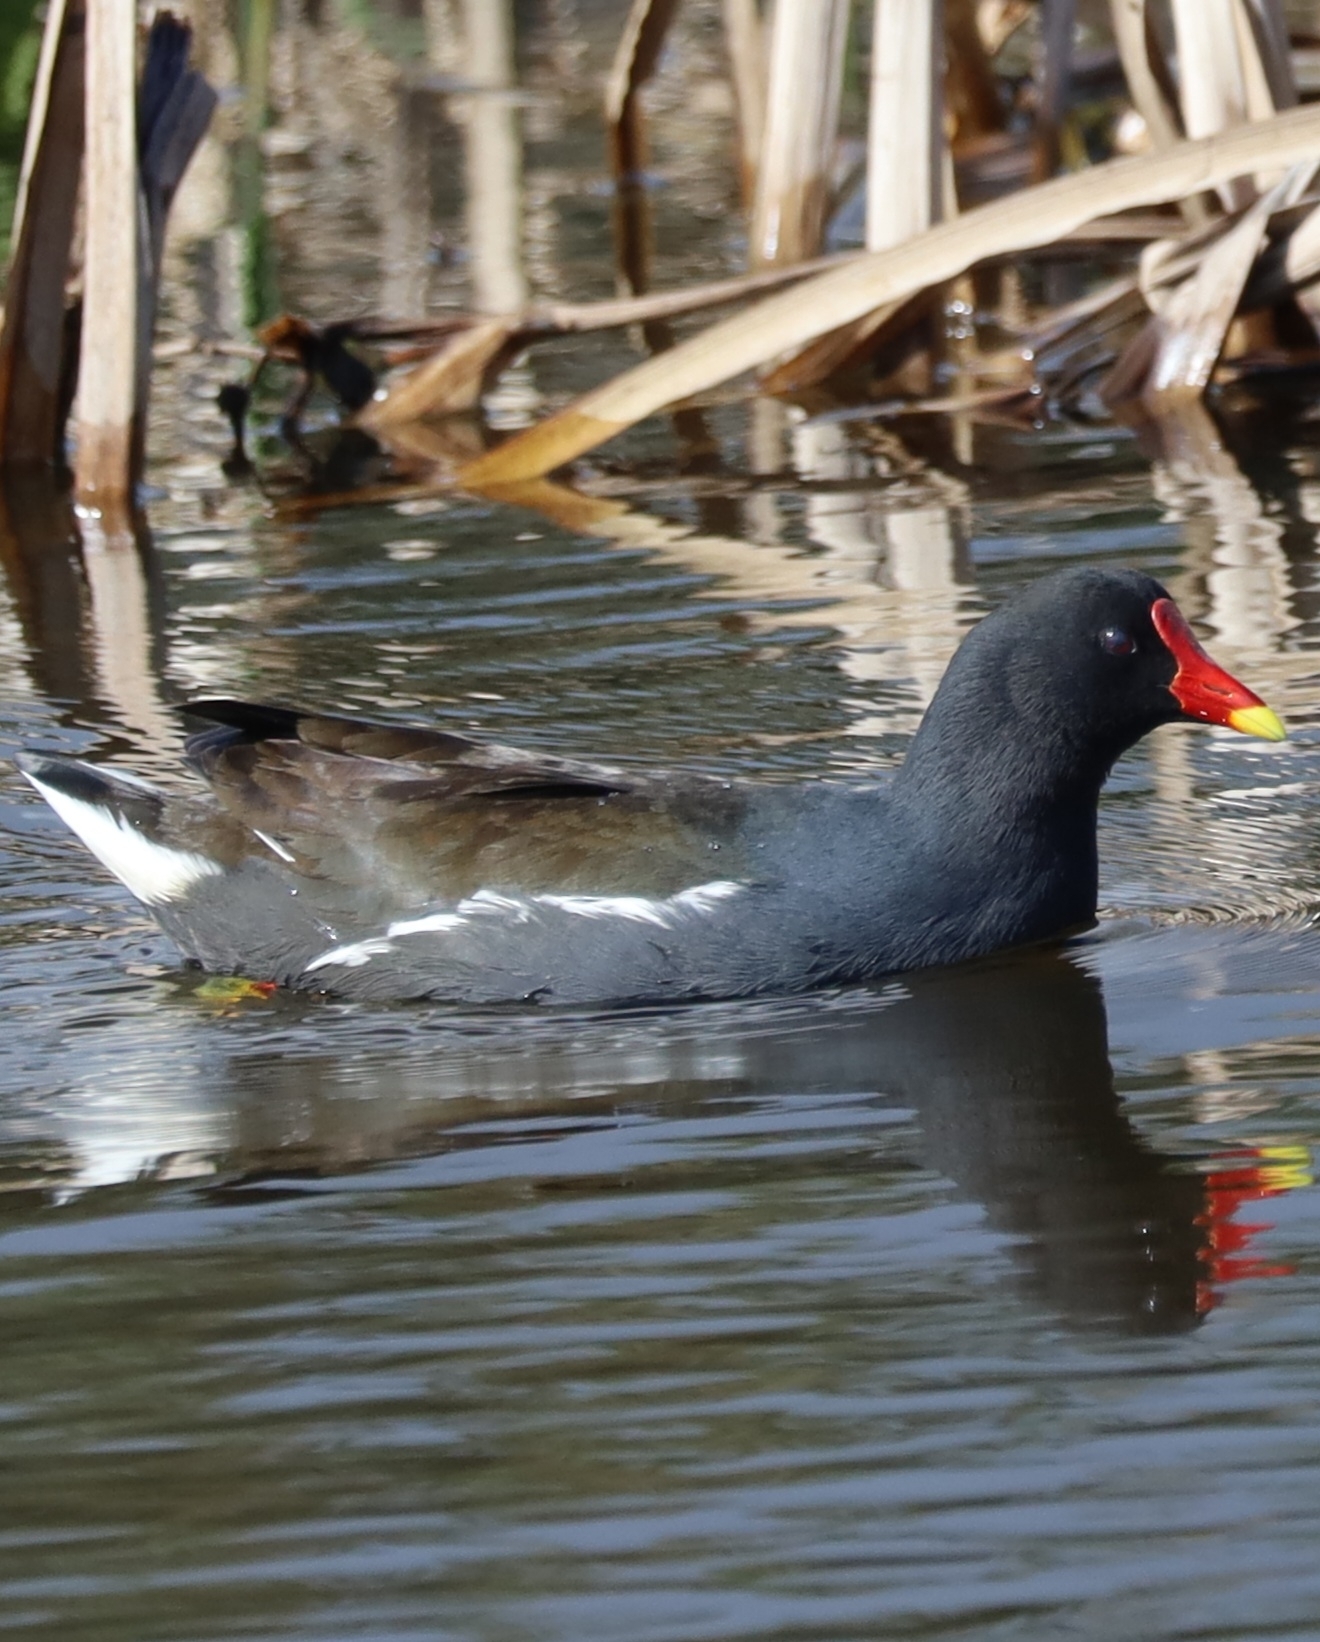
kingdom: Animalia
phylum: Chordata
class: Aves
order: Gruiformes
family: Rallidae
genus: Gallinula
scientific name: Gallinula chloropus
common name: Common moorhen
